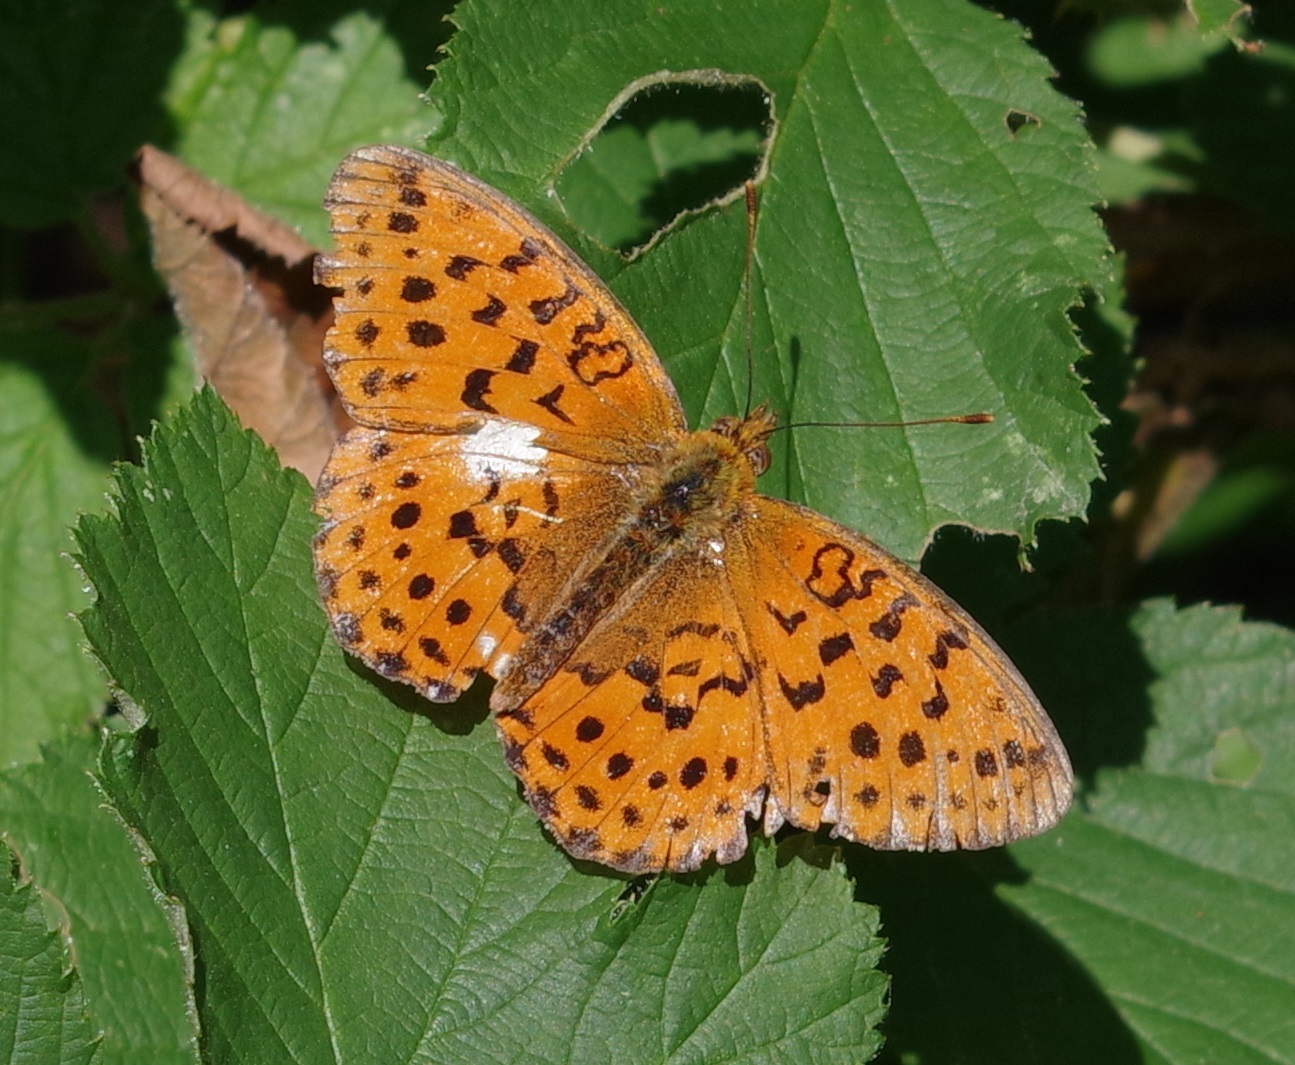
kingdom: Animalia
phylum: Arthropoda
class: Insecta
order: Lepidoptera
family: Nymphalidae
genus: Brenthis
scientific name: Brenthis daphne
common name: Marbled fritillary
